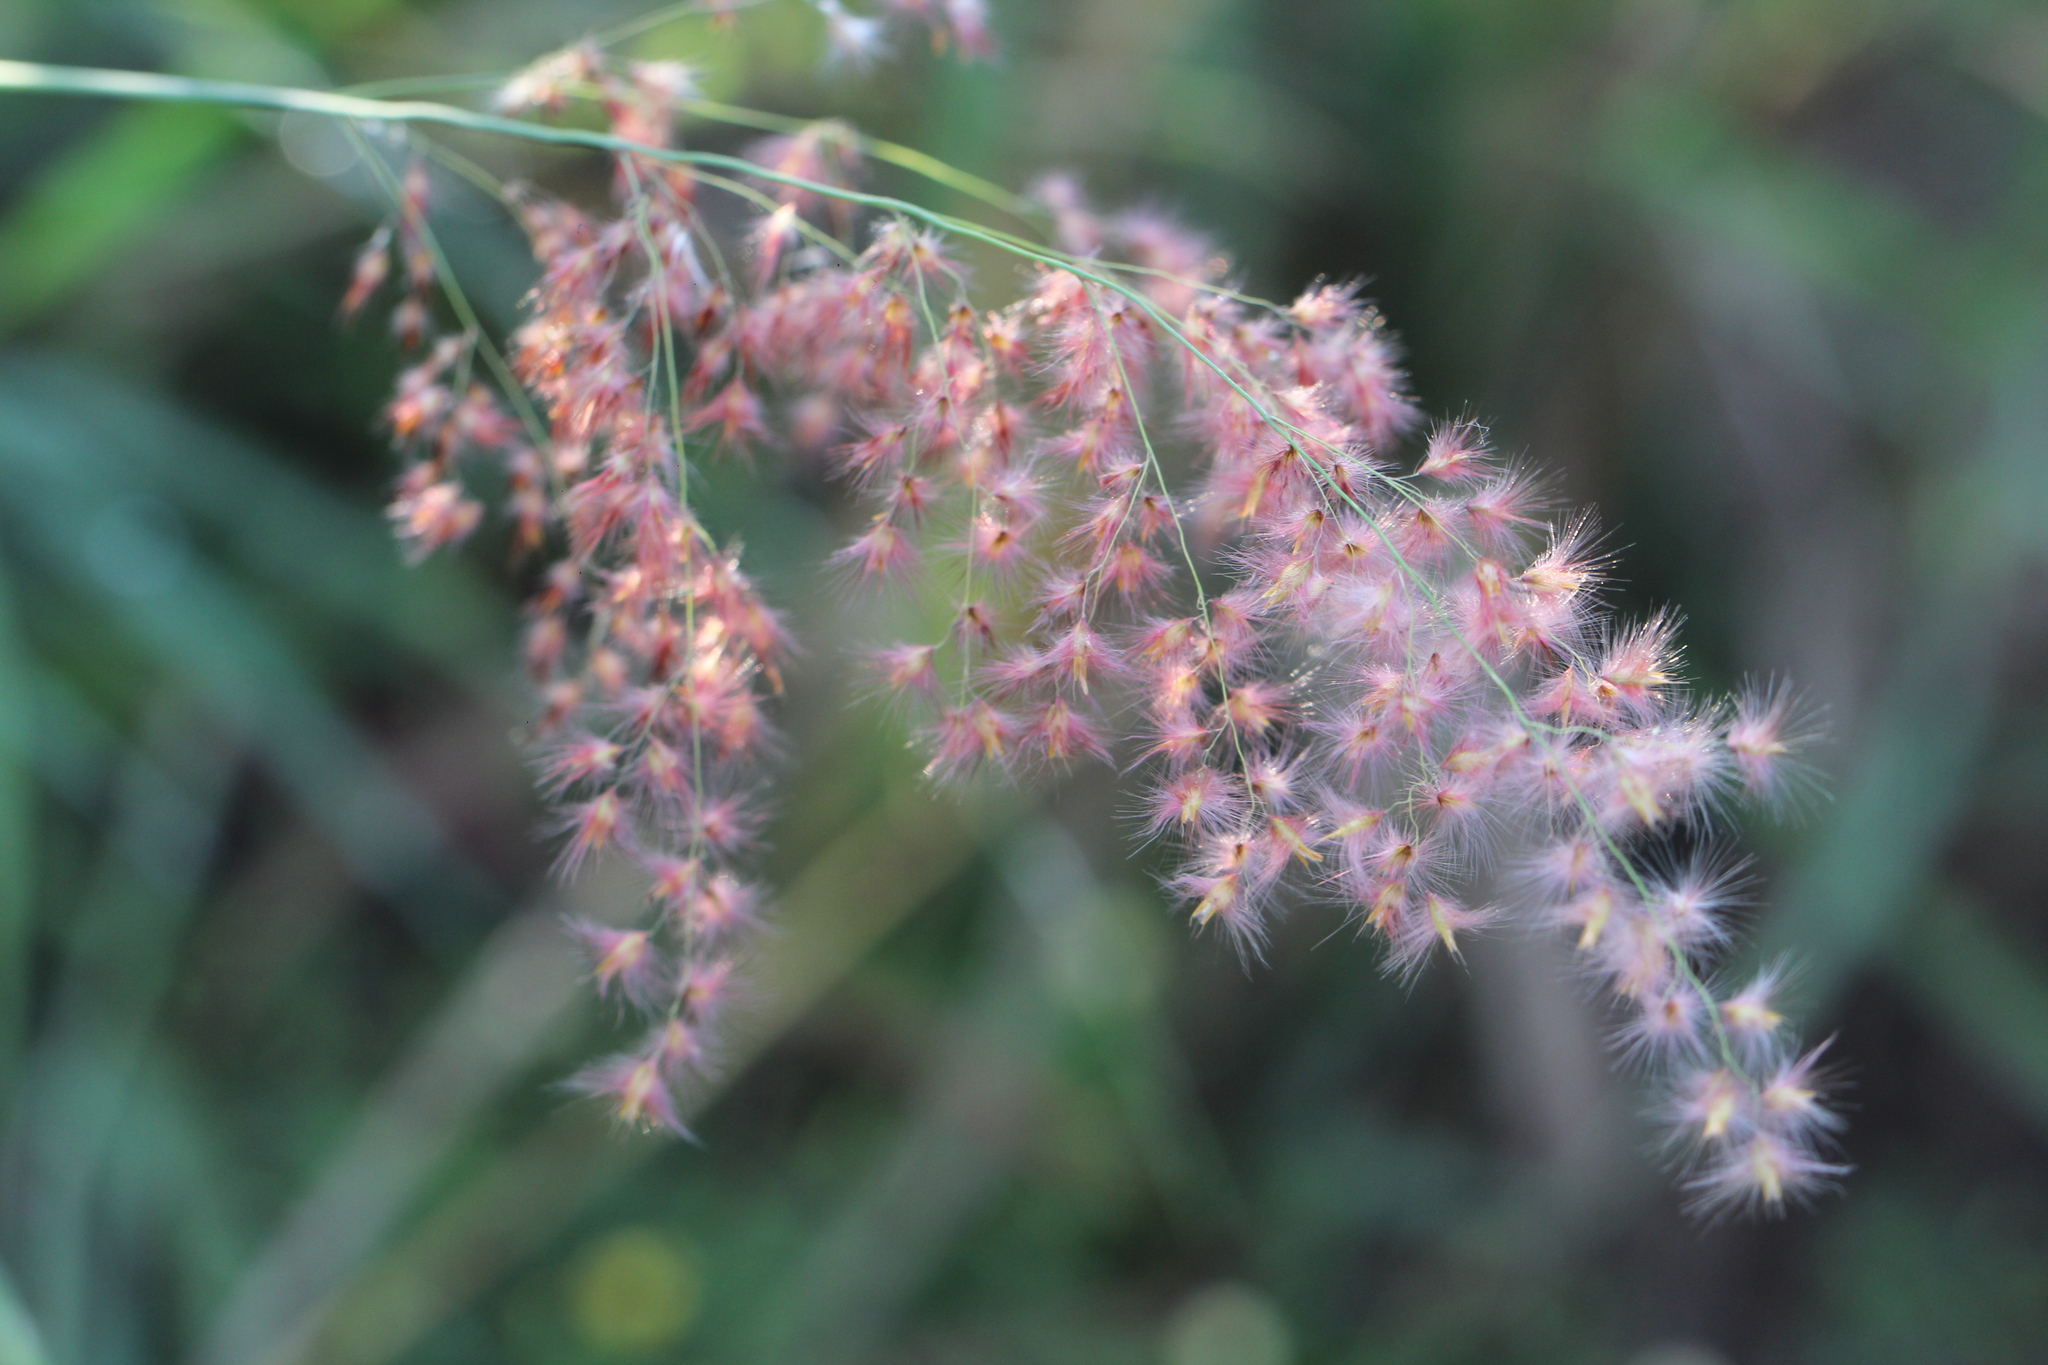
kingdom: Plantae
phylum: Tracheophyta
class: Liliopsida
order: Poales
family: Poaceae
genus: Melinis
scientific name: Melinis repens
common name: Rose natal grass
